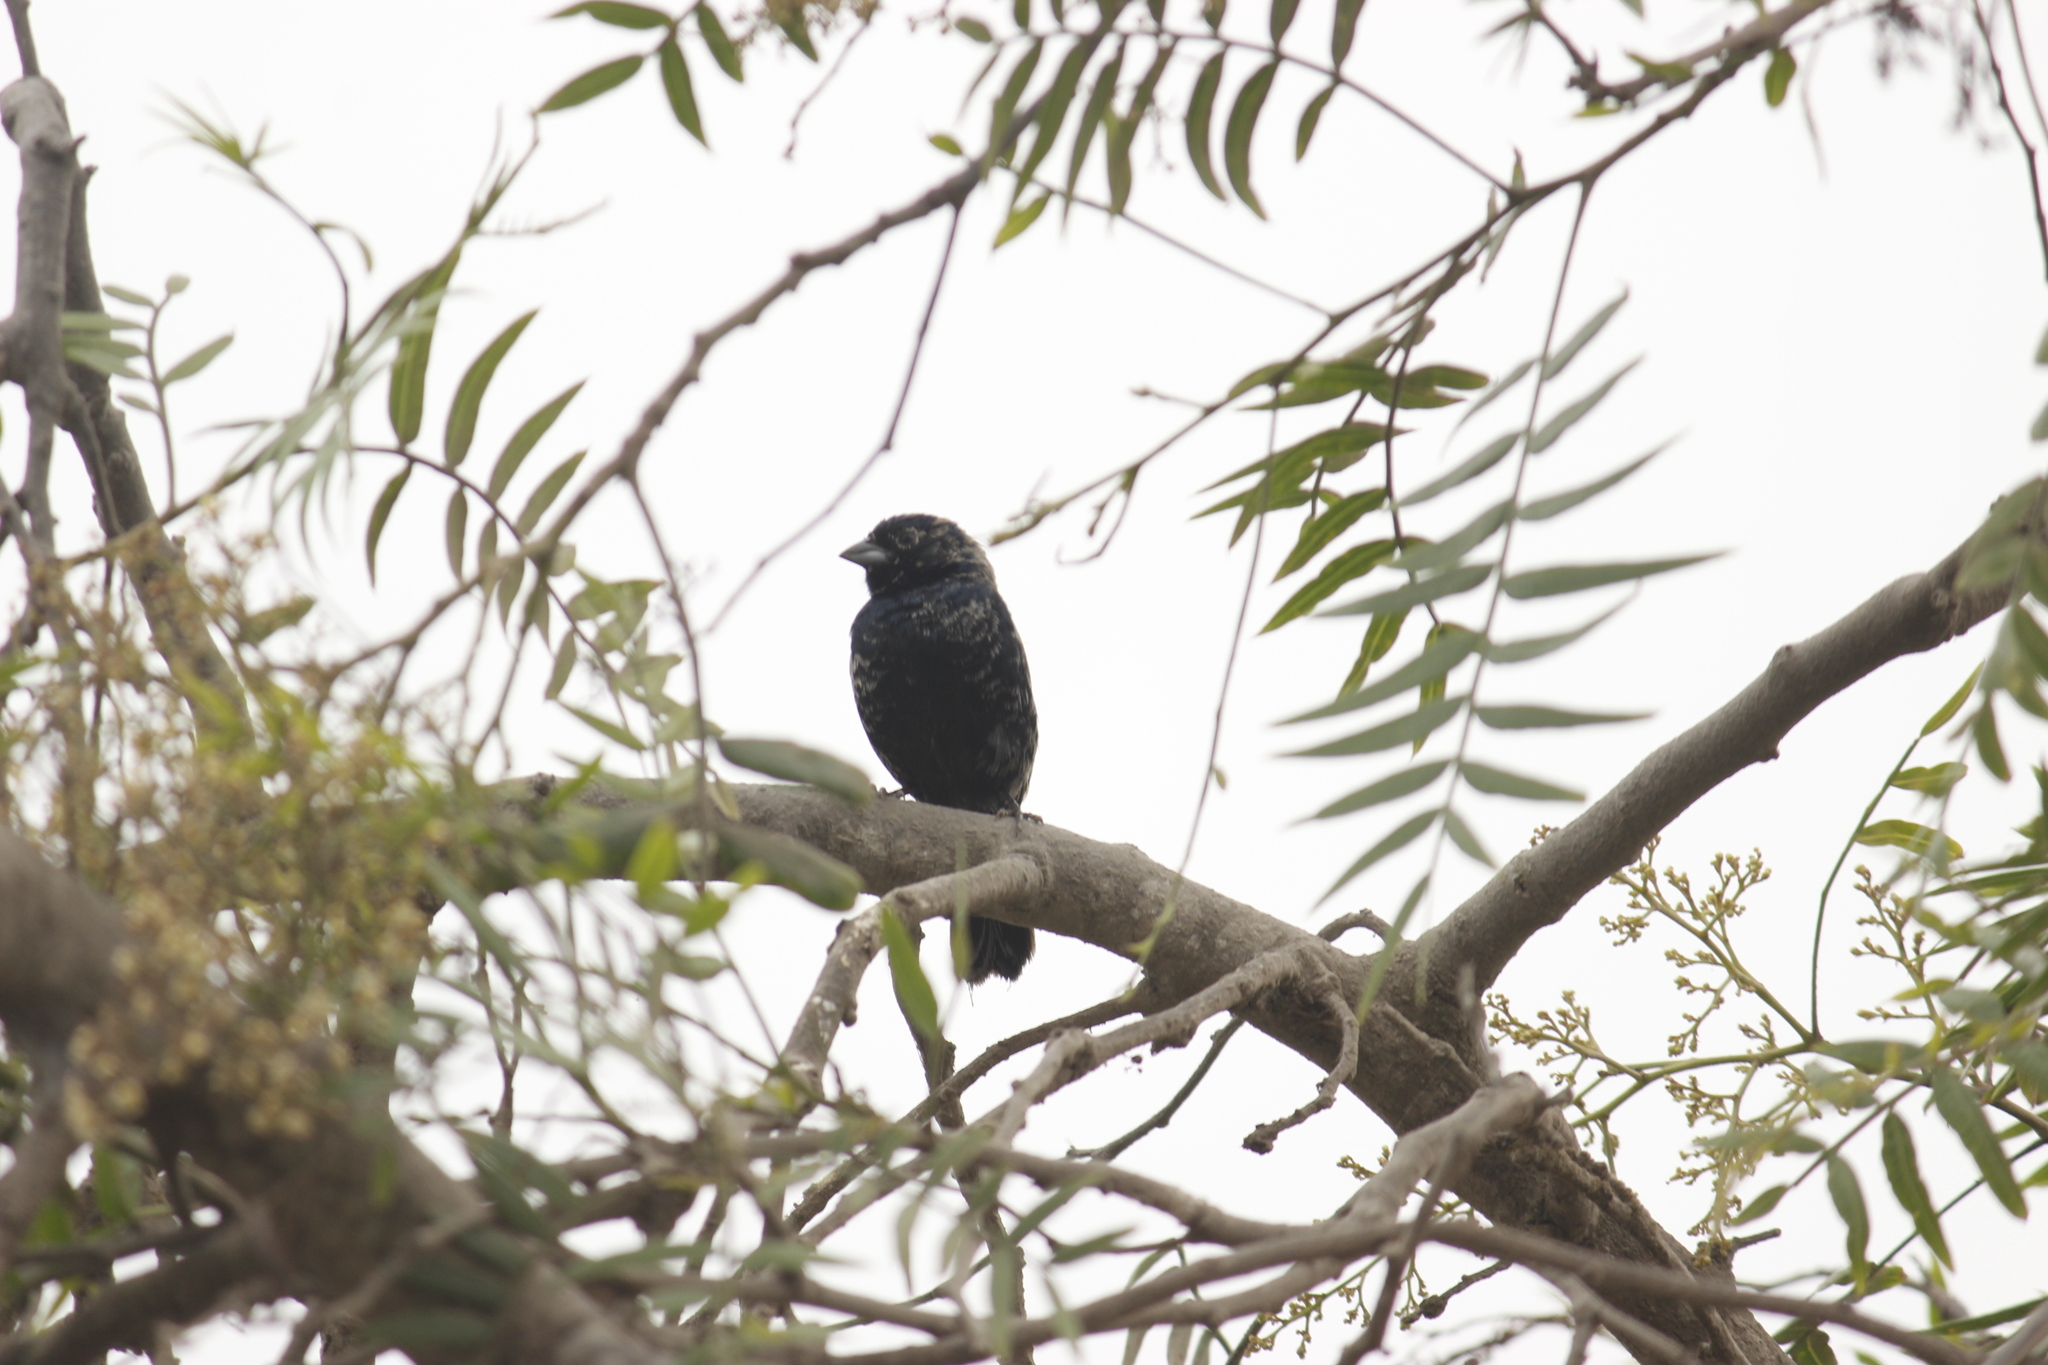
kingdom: Animalia
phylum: Chordata
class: Aves
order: Passeriformes
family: Thraupidae
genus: Volatinia
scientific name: Volatinia jacarina
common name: Blue-black grassquit
